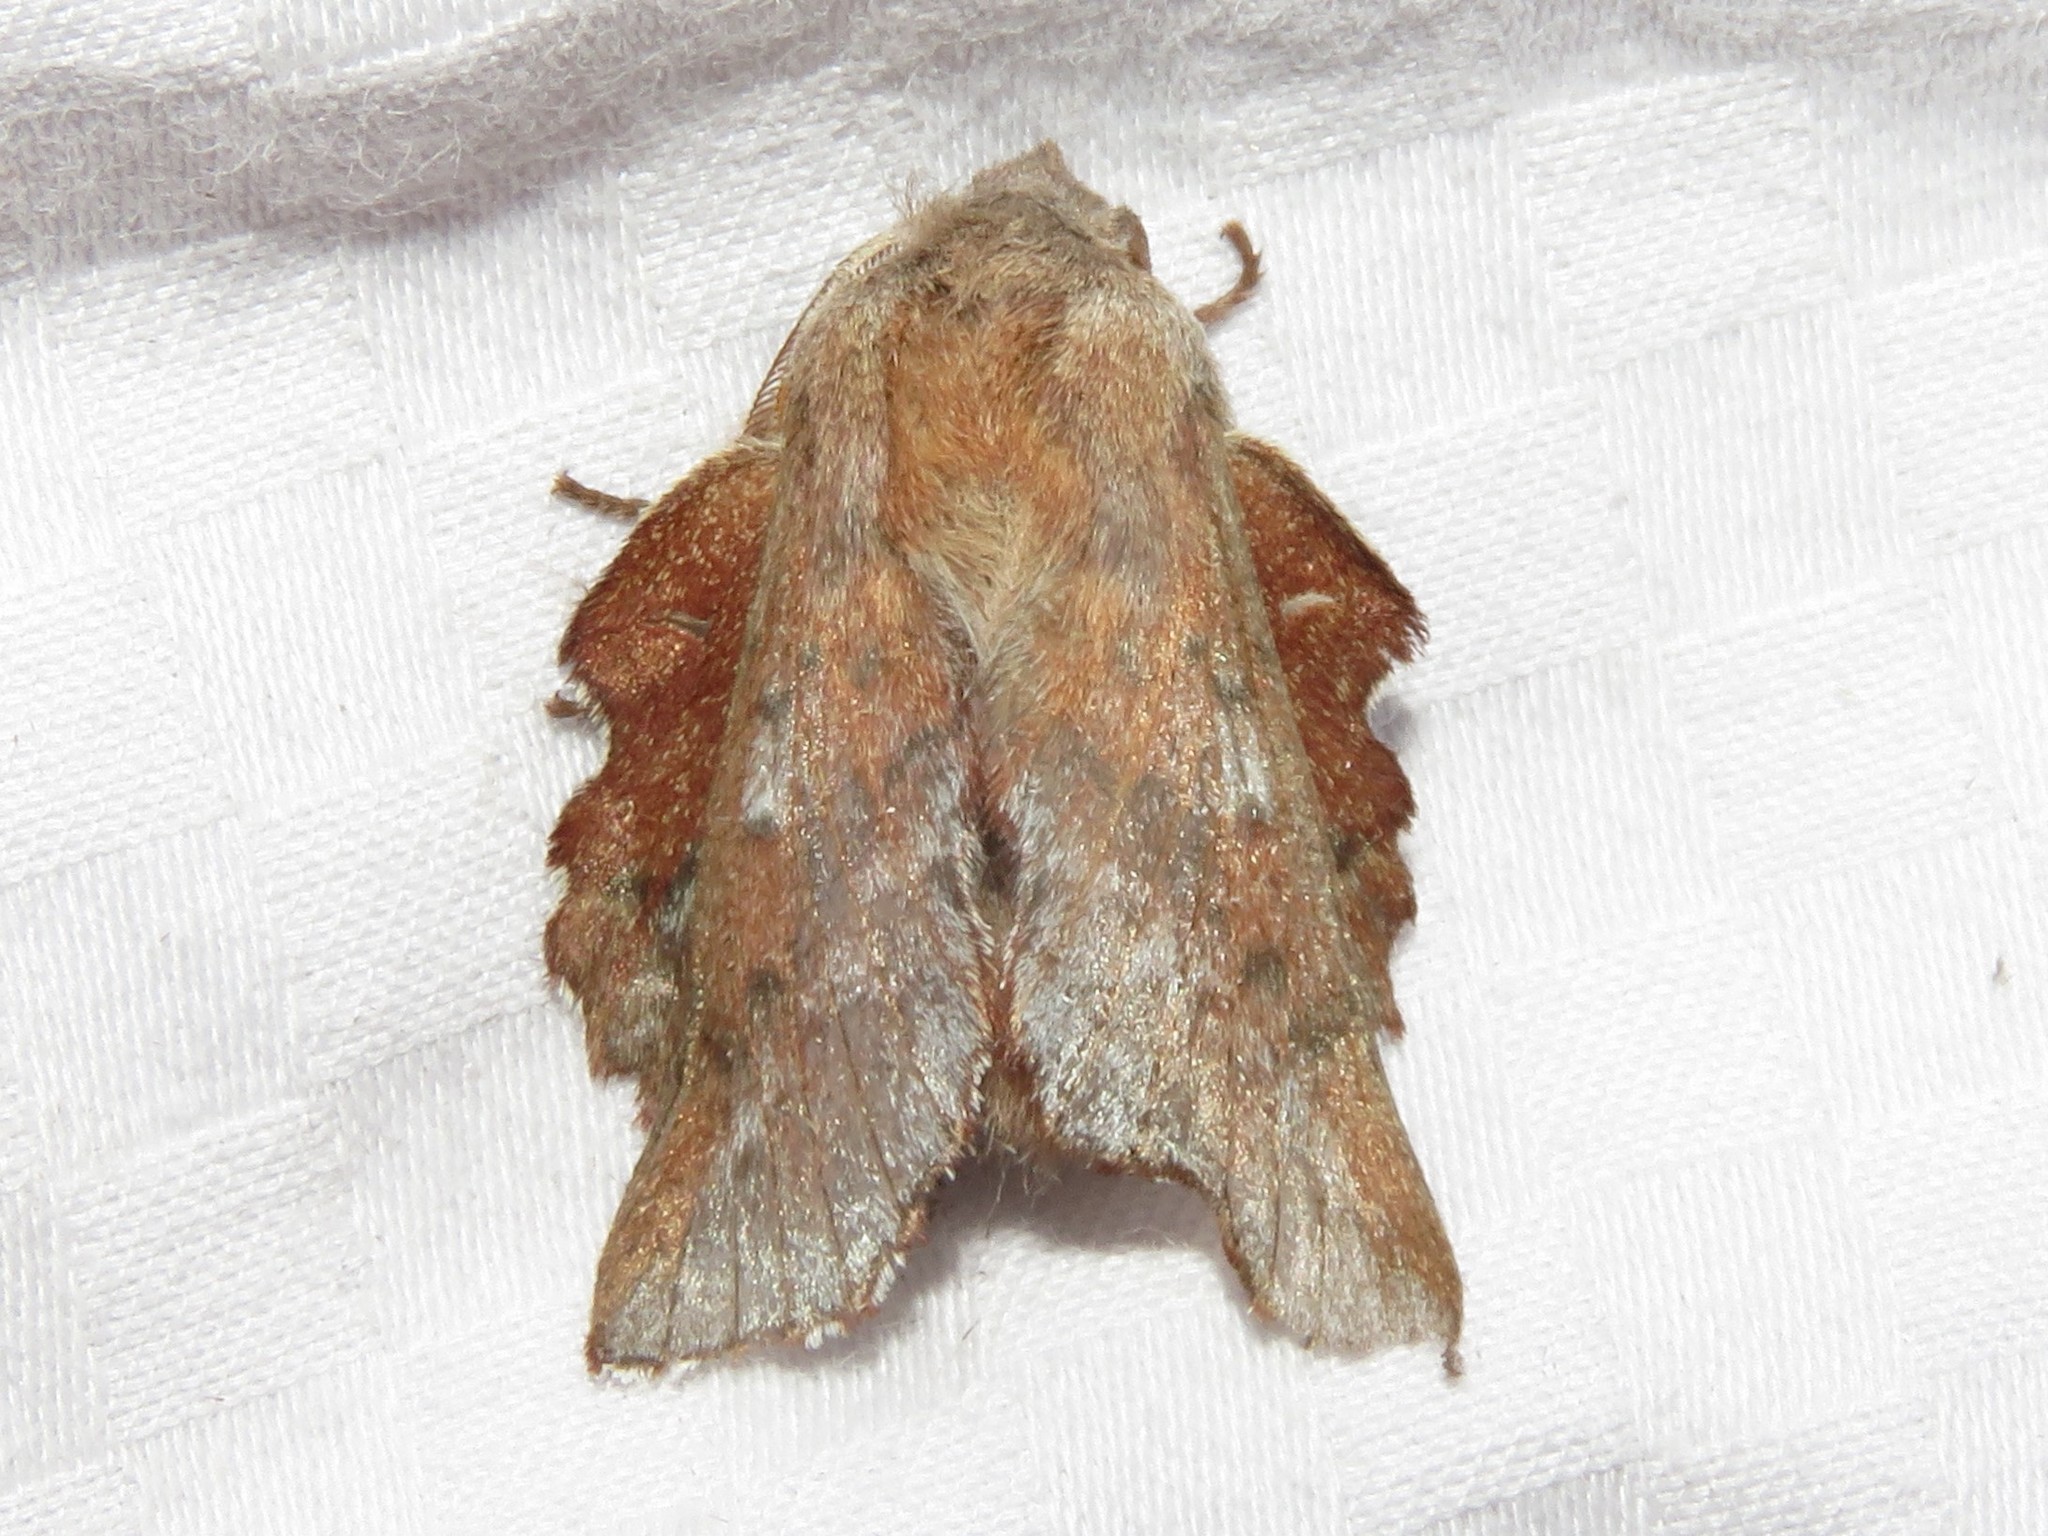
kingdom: Animalia
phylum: Arthropoda
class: Insecta
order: Lepidoptera
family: Lasiocampidae
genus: Phyllodesma
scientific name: Phyllodesma americana
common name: American lappet moth
